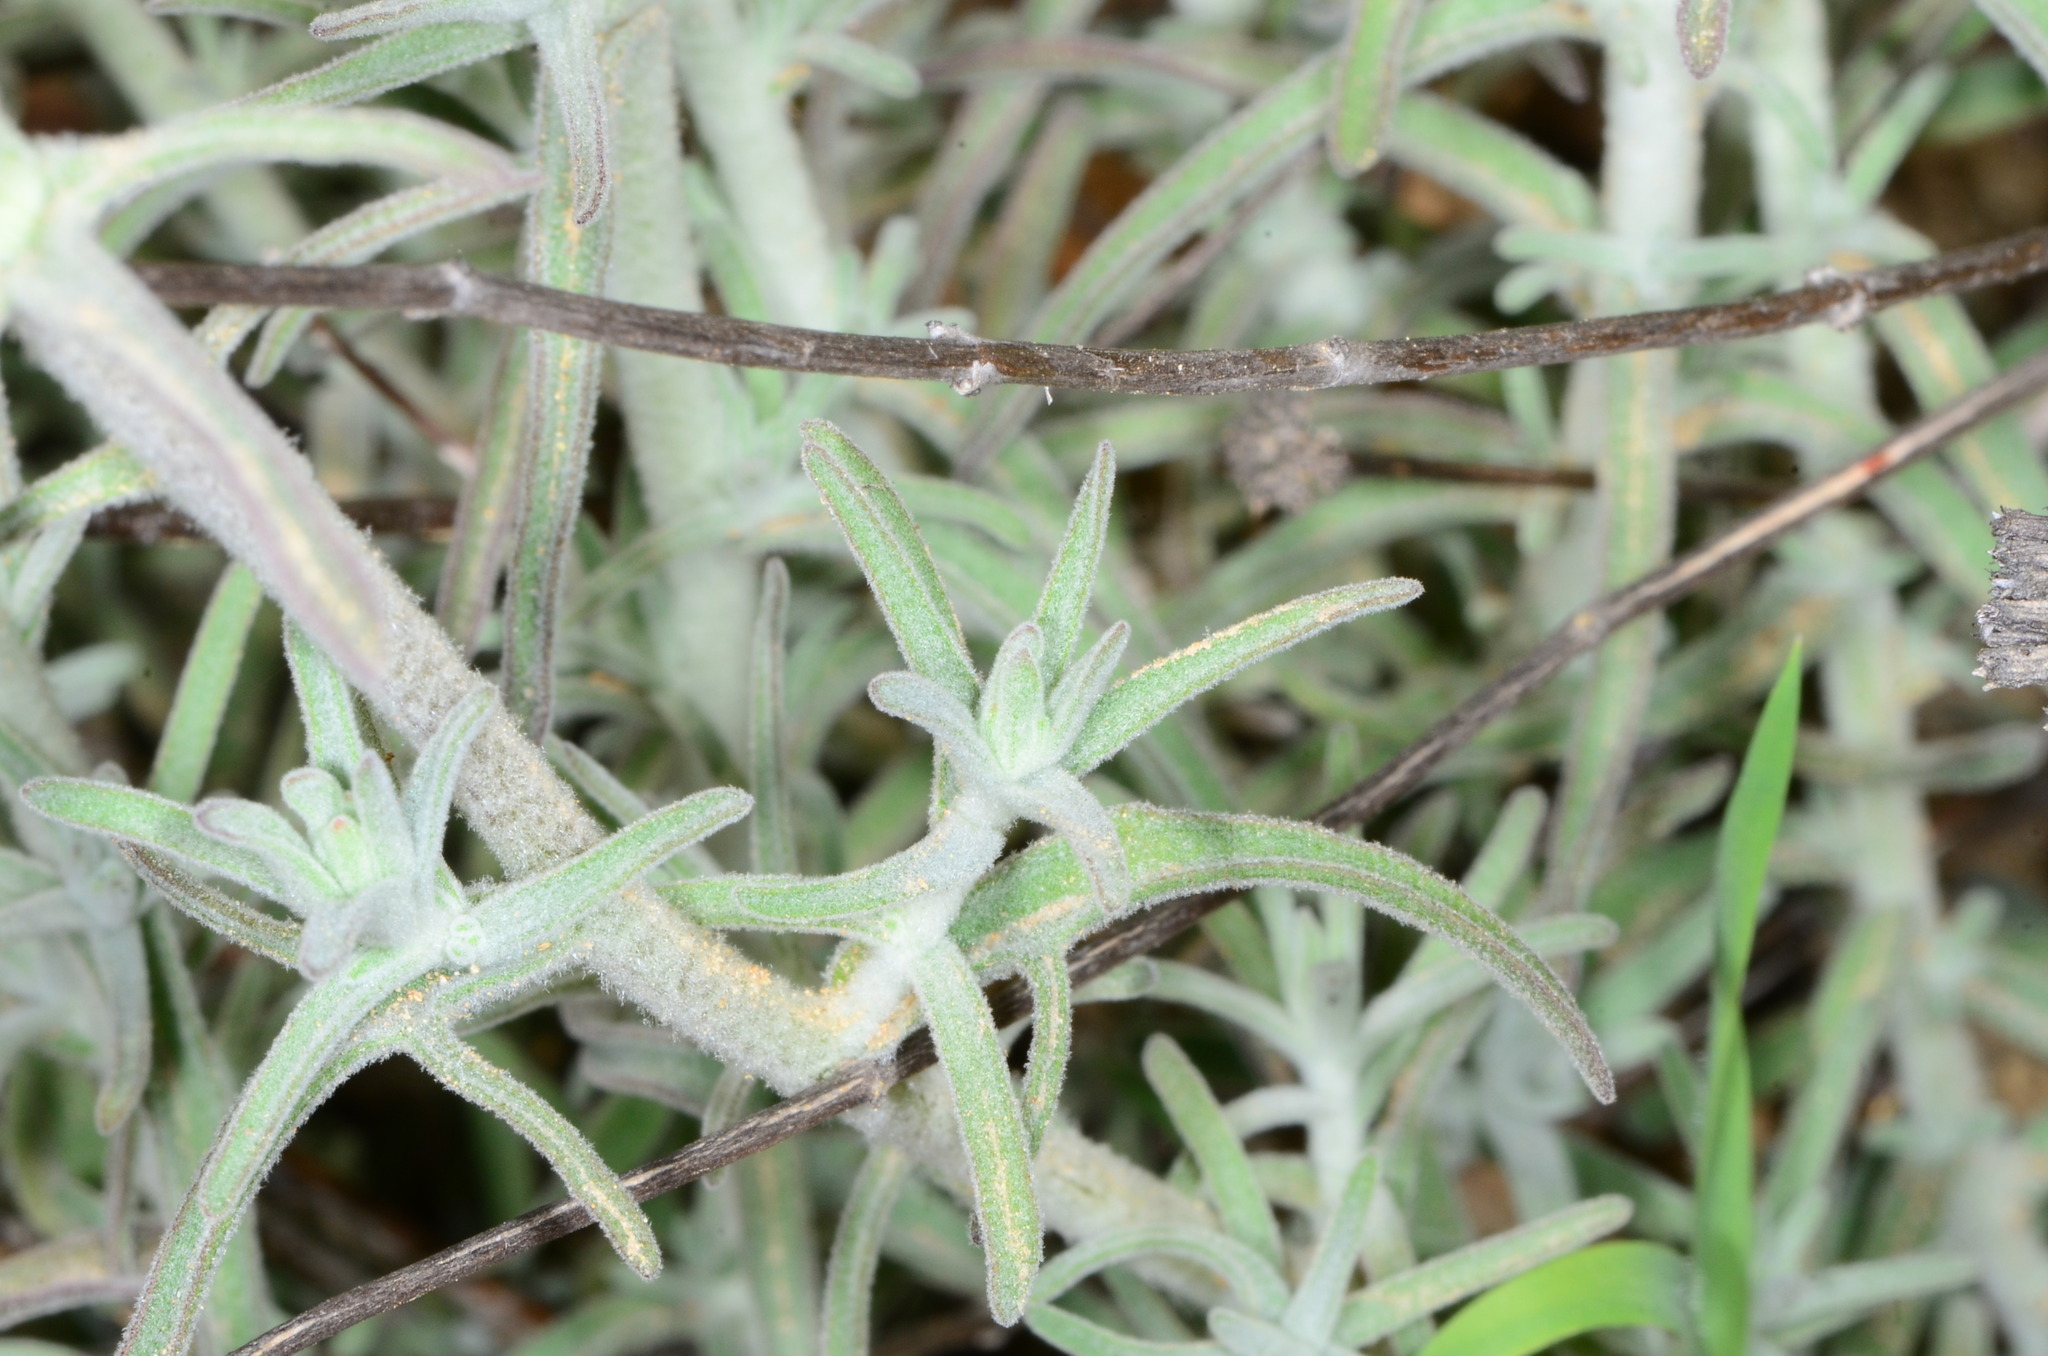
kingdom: Plantae
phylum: Tracheophyta
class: Magnoliopsida
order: Lamiales
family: Orobanchaceae
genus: Castilleja
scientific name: Castilleja foliolosa
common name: Woolly indian paintbrush
